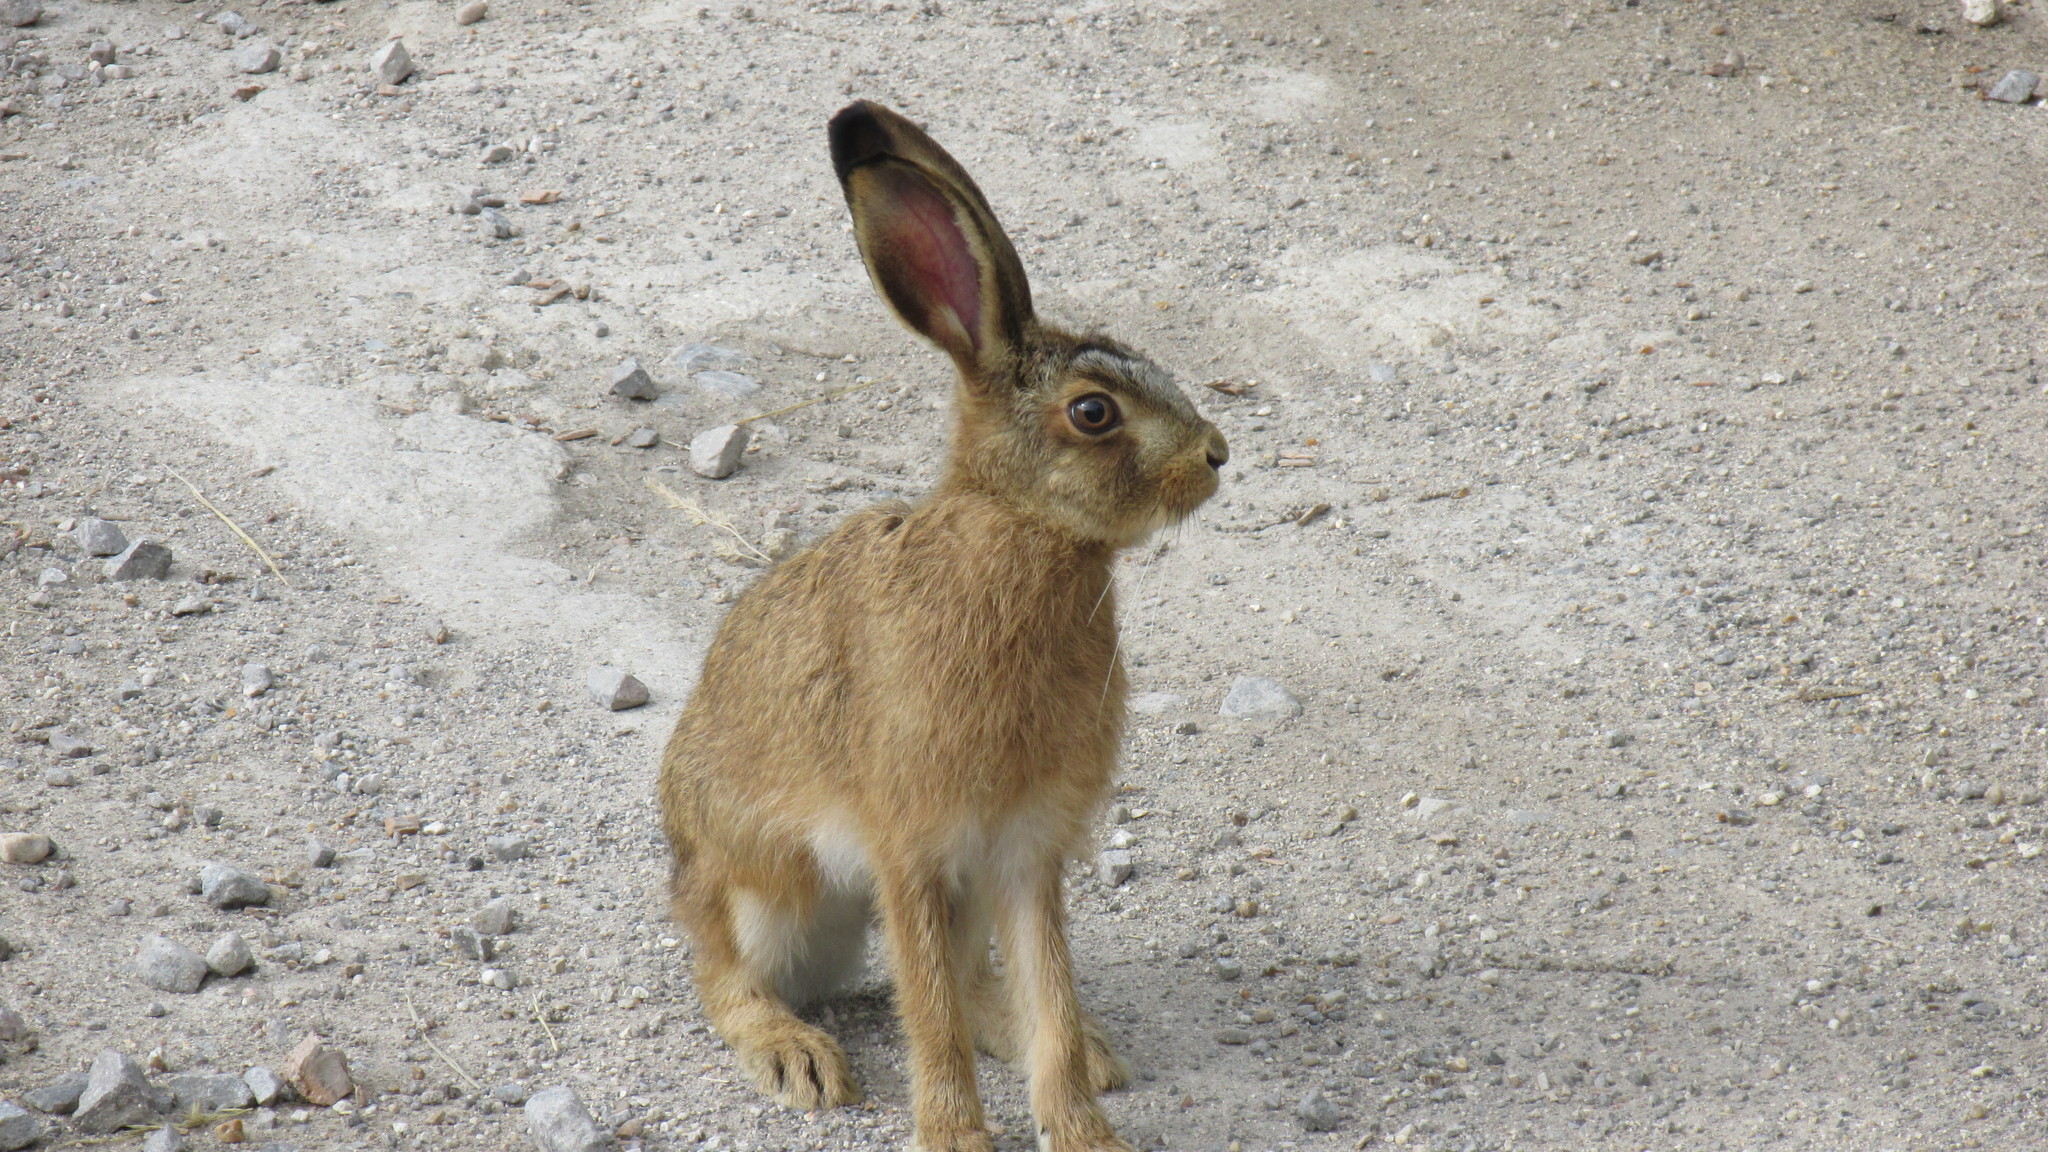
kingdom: Animalia
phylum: Chordata
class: Mammalia
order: Lagomorpha
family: Leporidae
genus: Lepus
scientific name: Lepus europaeus
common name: European hare
